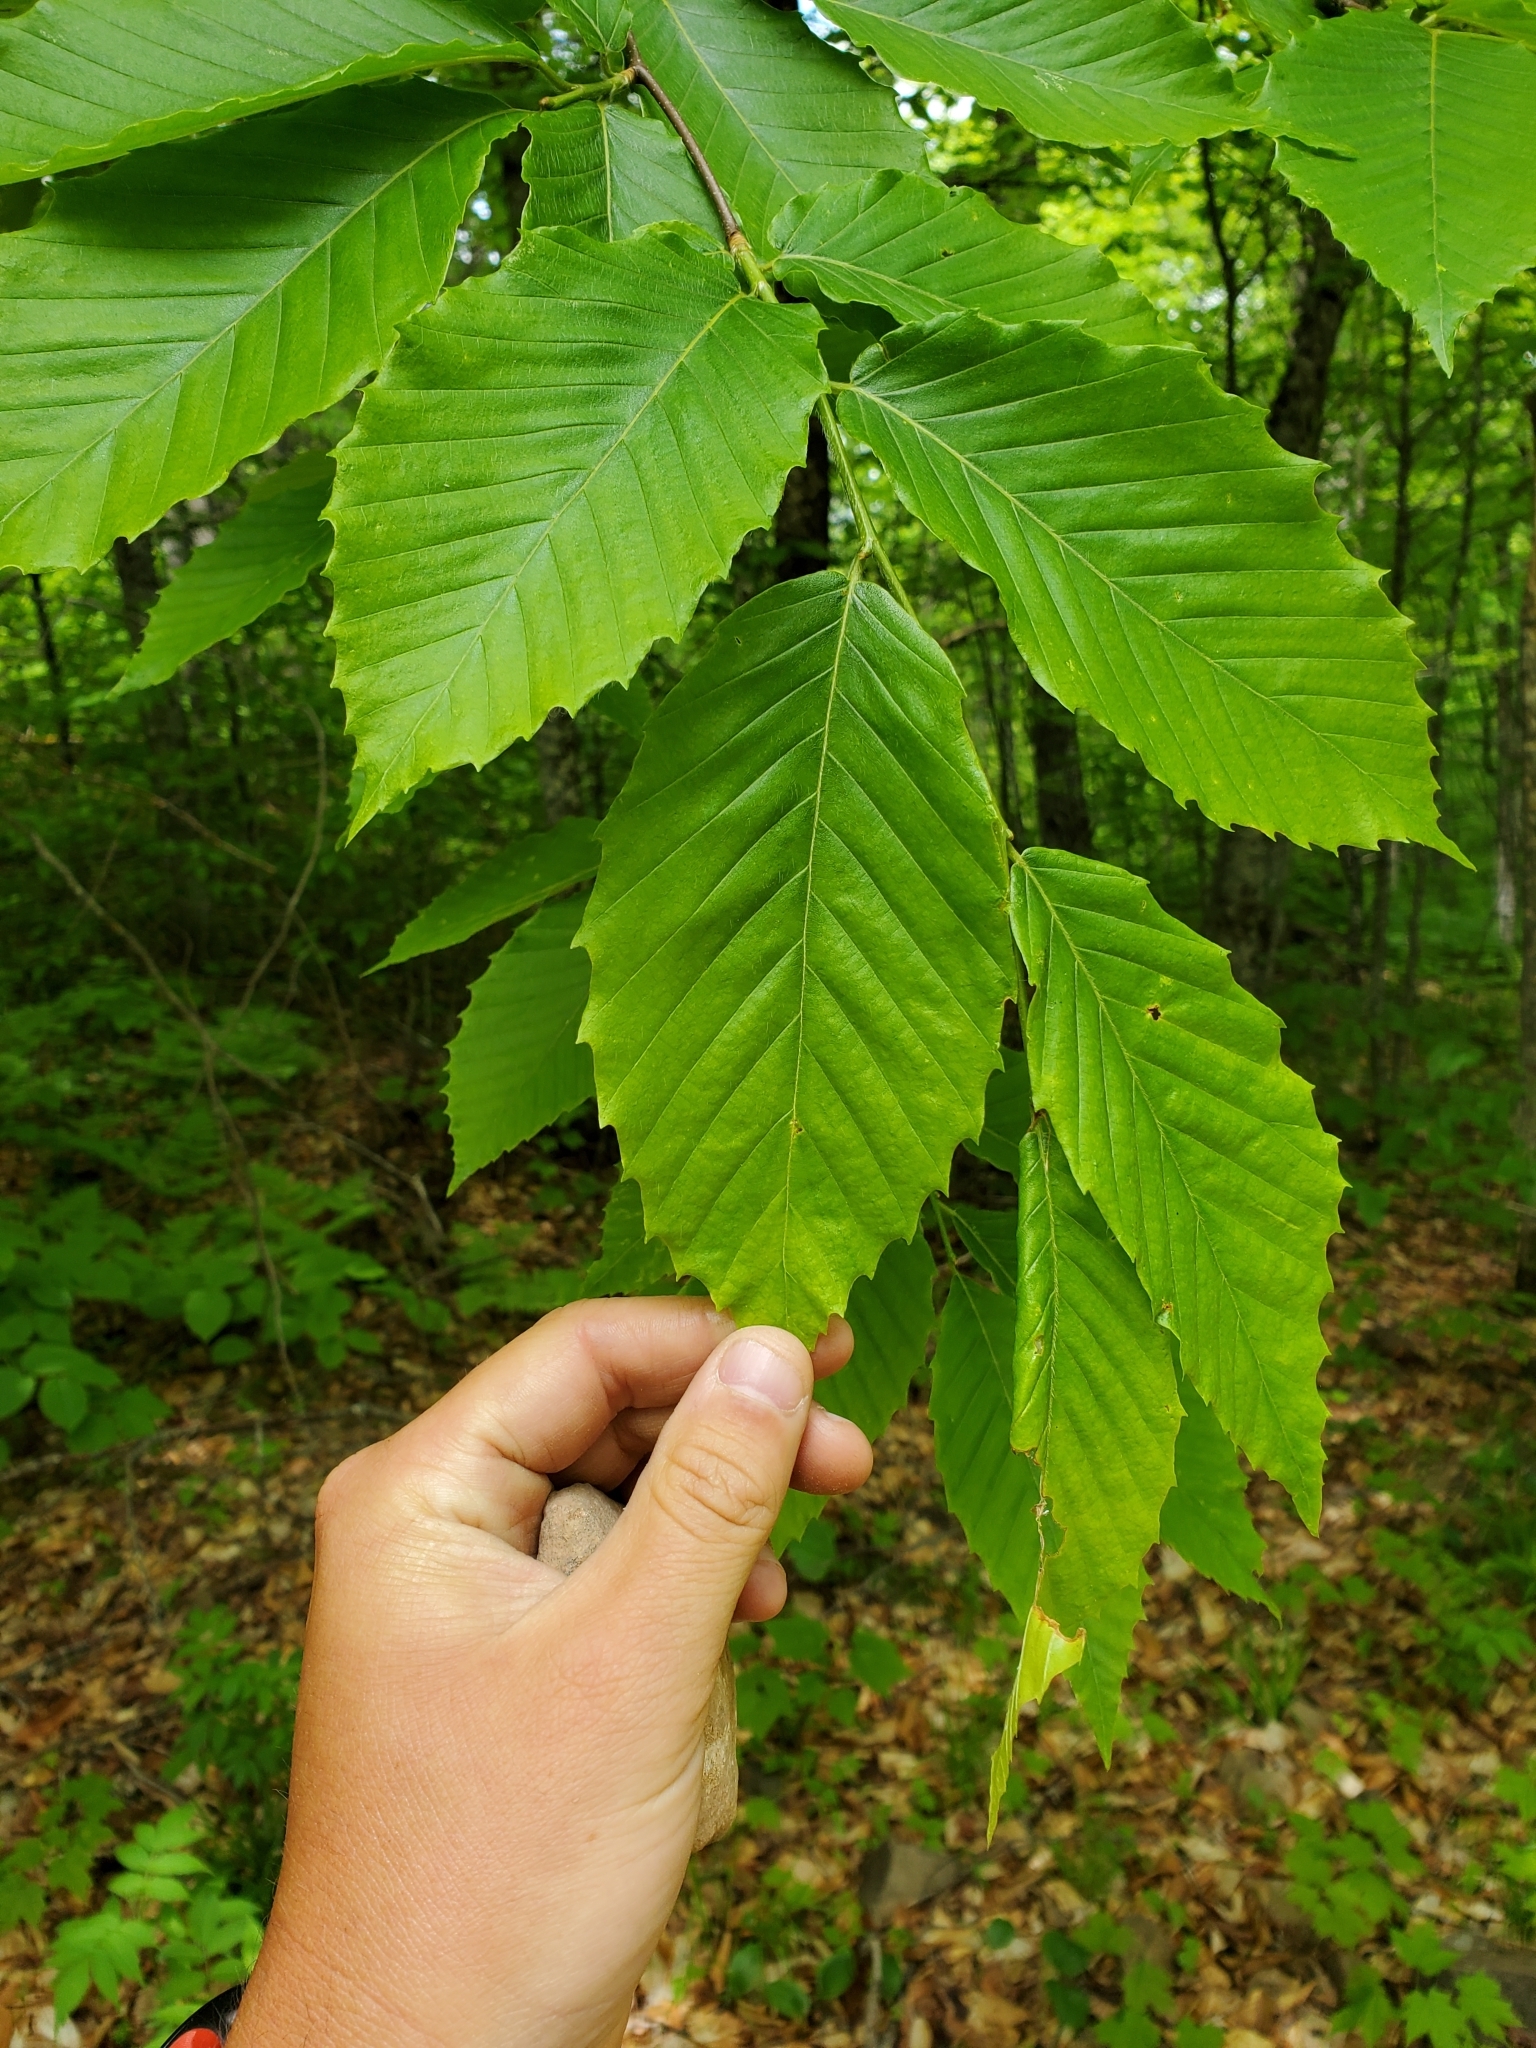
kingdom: Plantae
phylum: Tracheophyta
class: Magnoliopsida
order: Fagales
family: Fagaceae
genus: Fagus
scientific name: Fagus grandifolia
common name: American beech
